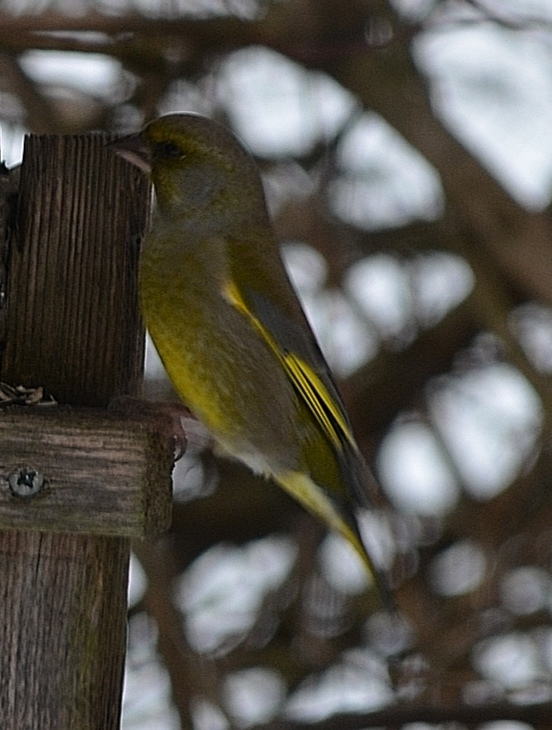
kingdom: Plantae
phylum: Tracheophyta
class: Liliopsida
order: Poales
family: Poaceae
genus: Chloris
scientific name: Chloris chloris
